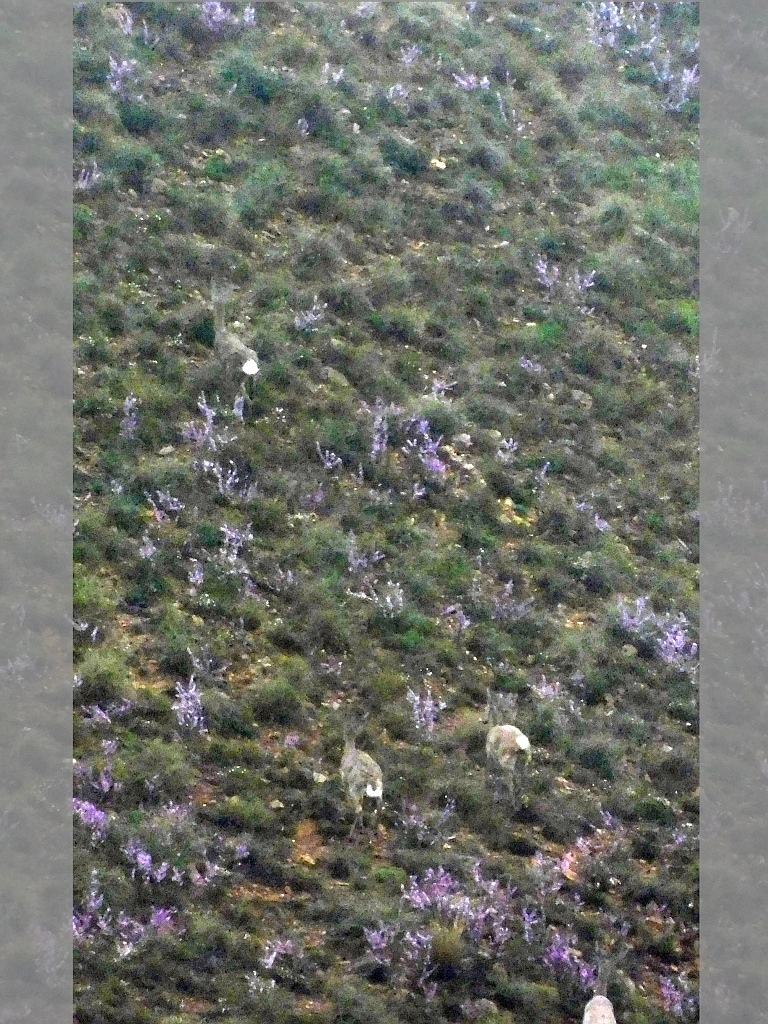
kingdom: Animalia
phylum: Chordata
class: Mammalia
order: Artiodactyla
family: Bovidae
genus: Pelea
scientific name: Pelea capreolus
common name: Common rhebok
